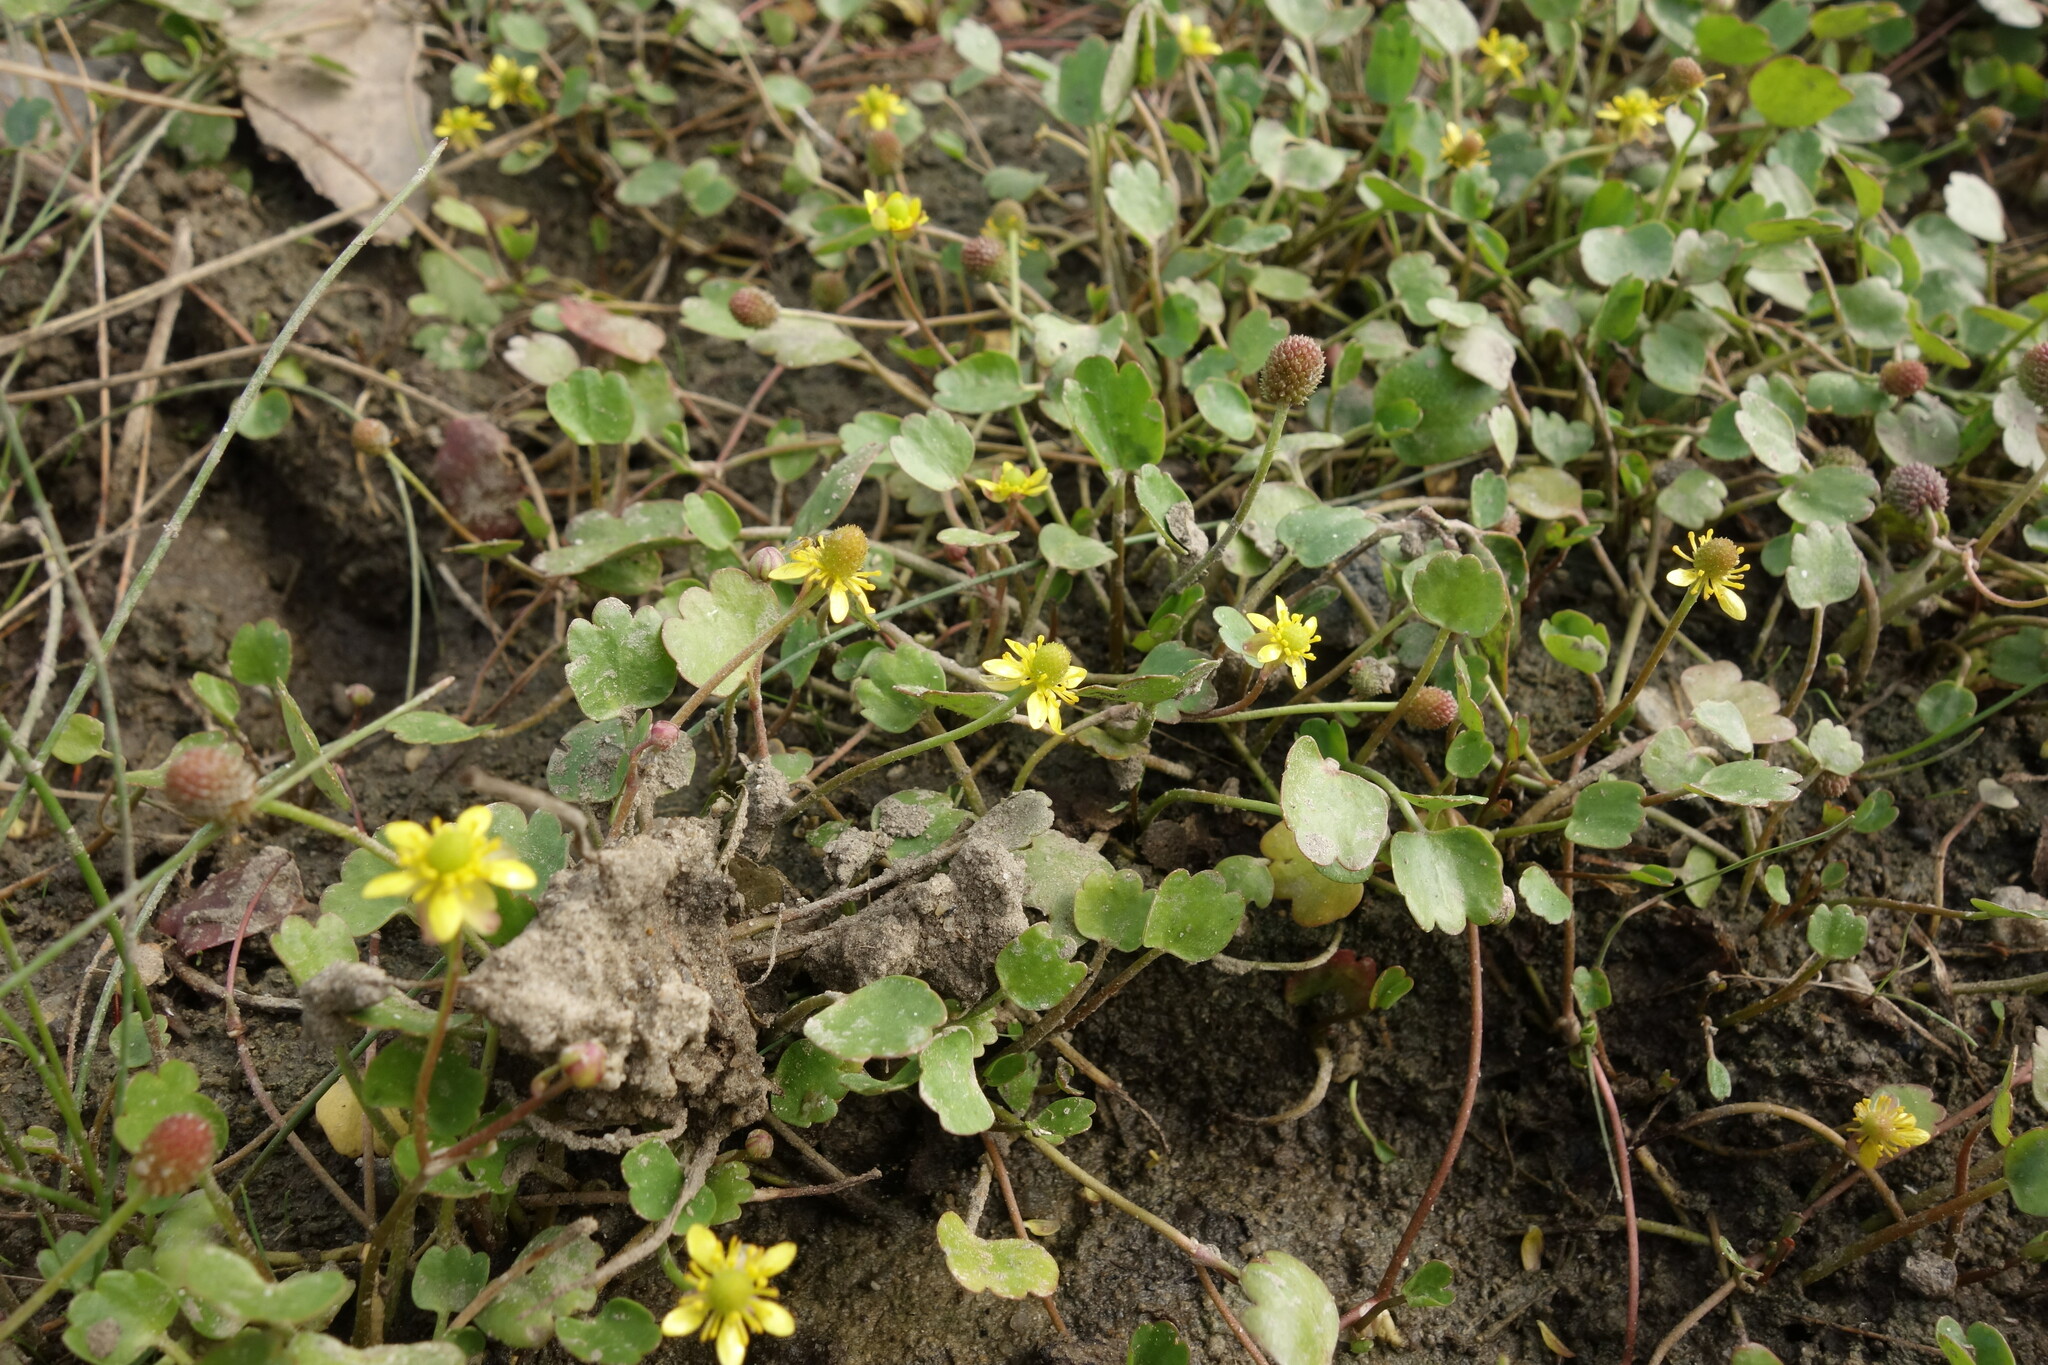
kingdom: Plantae
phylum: Tracheophyta
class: Magnoliopsida
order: Ranunculales
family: Ranunculaceae
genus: Halerpestes
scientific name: Halerpestes sarmentosus
